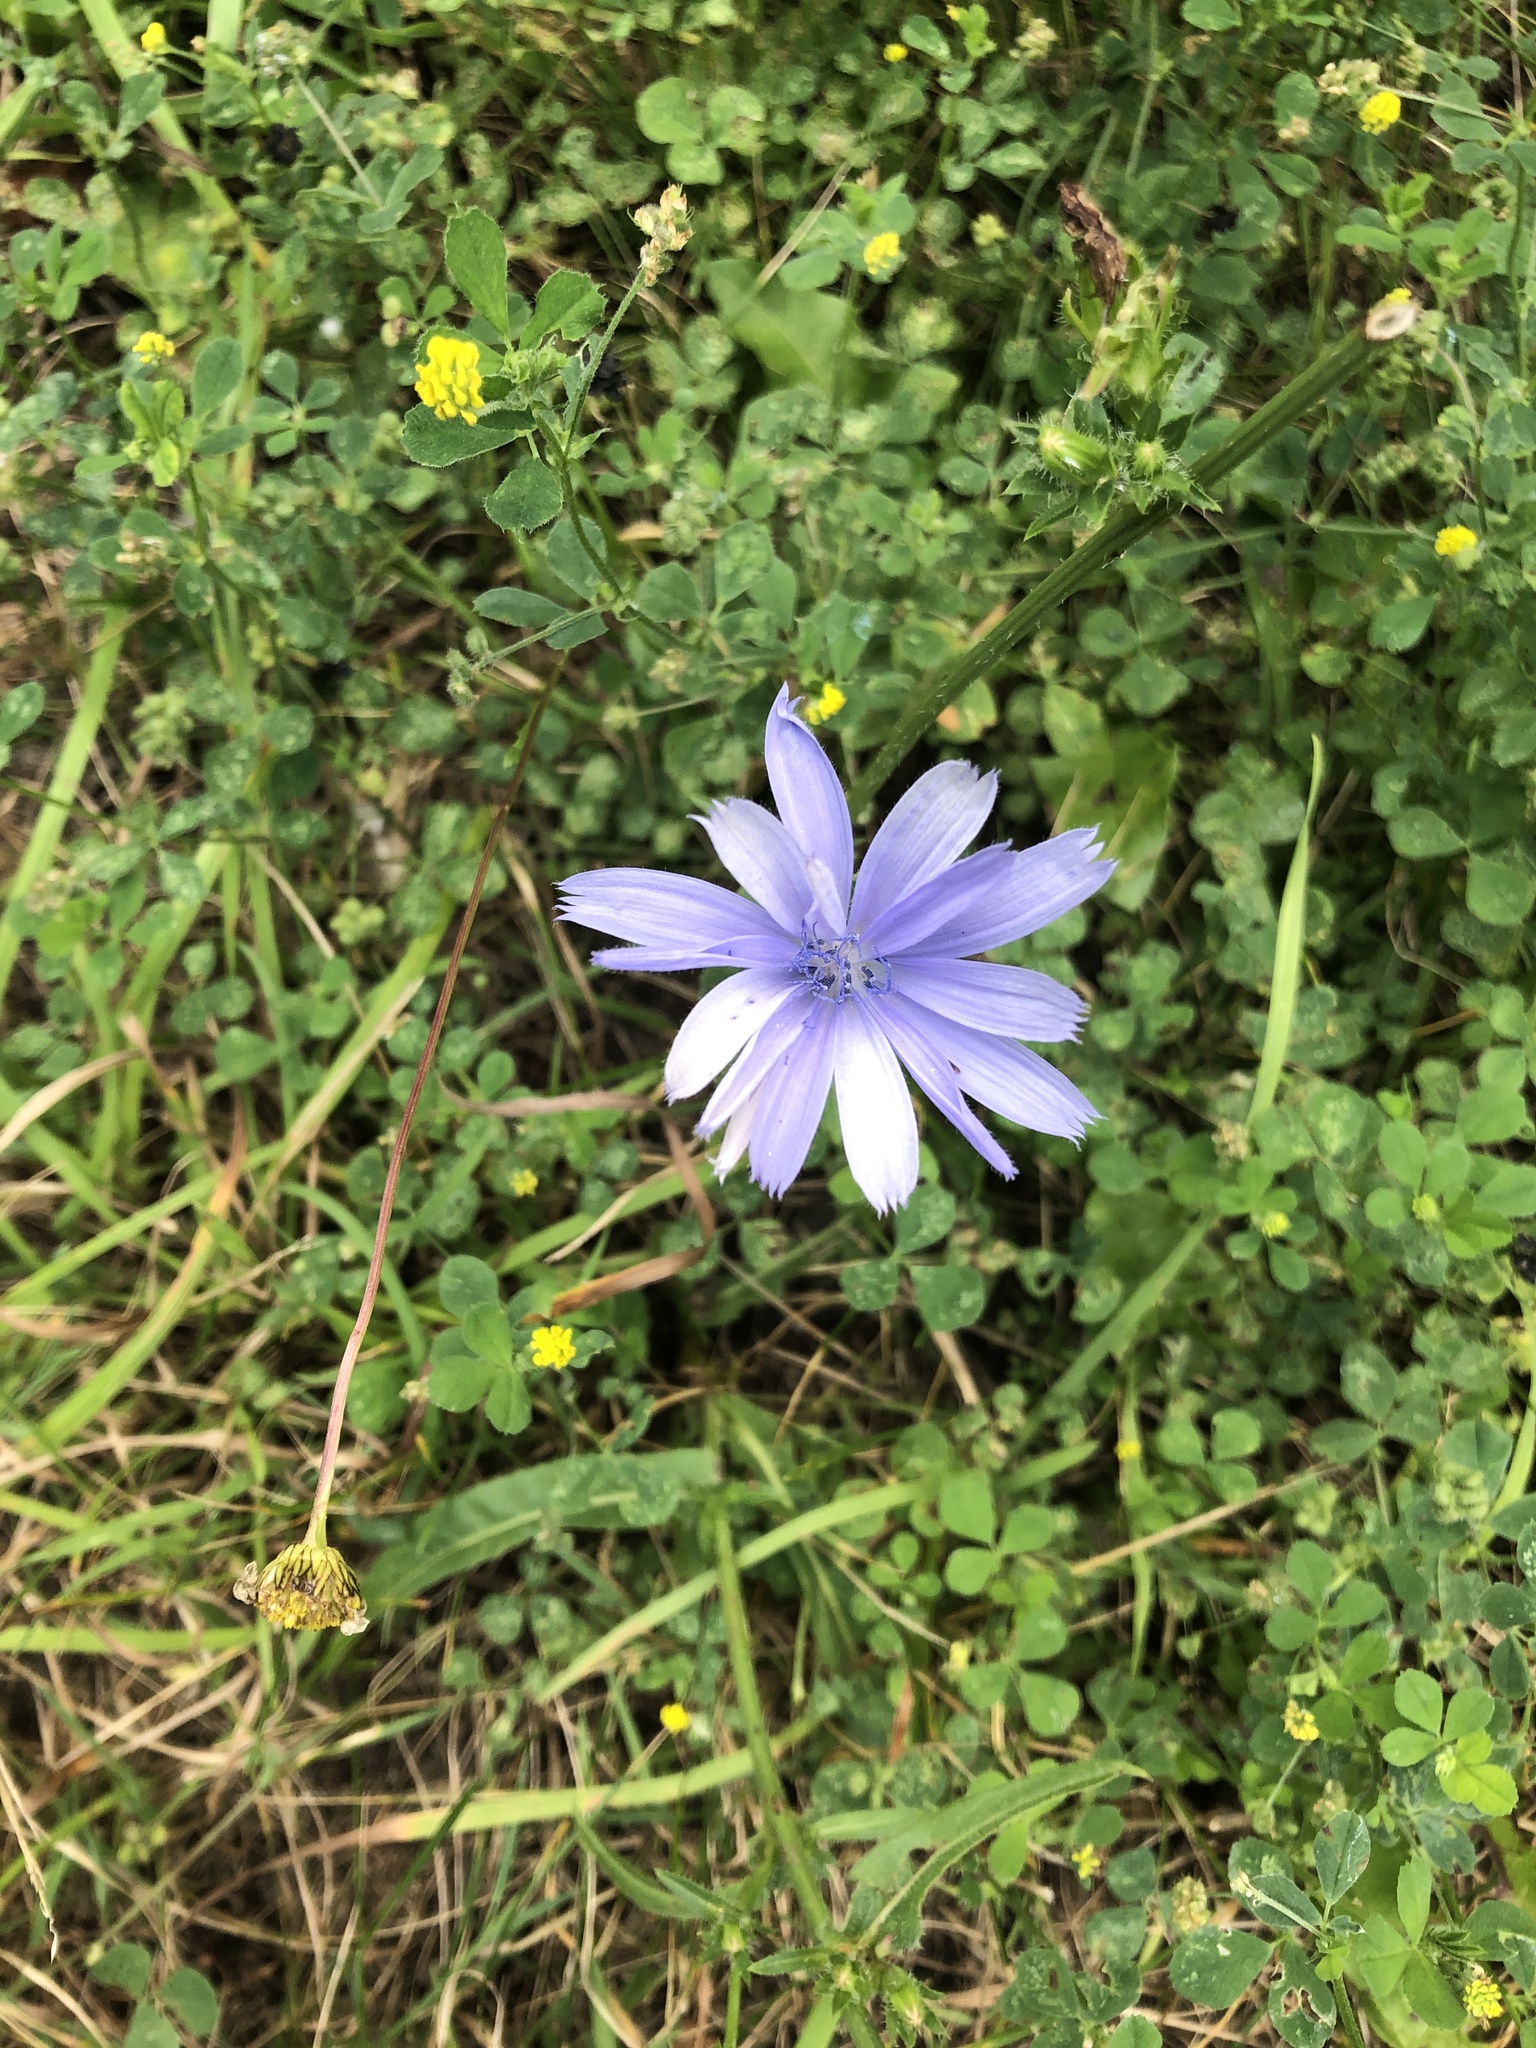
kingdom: Plantae
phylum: Tracheophyta
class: Magnoliopsida
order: Asterales
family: Asteraceae
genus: Cichorium
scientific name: Cichorium intybus
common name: Chicory
